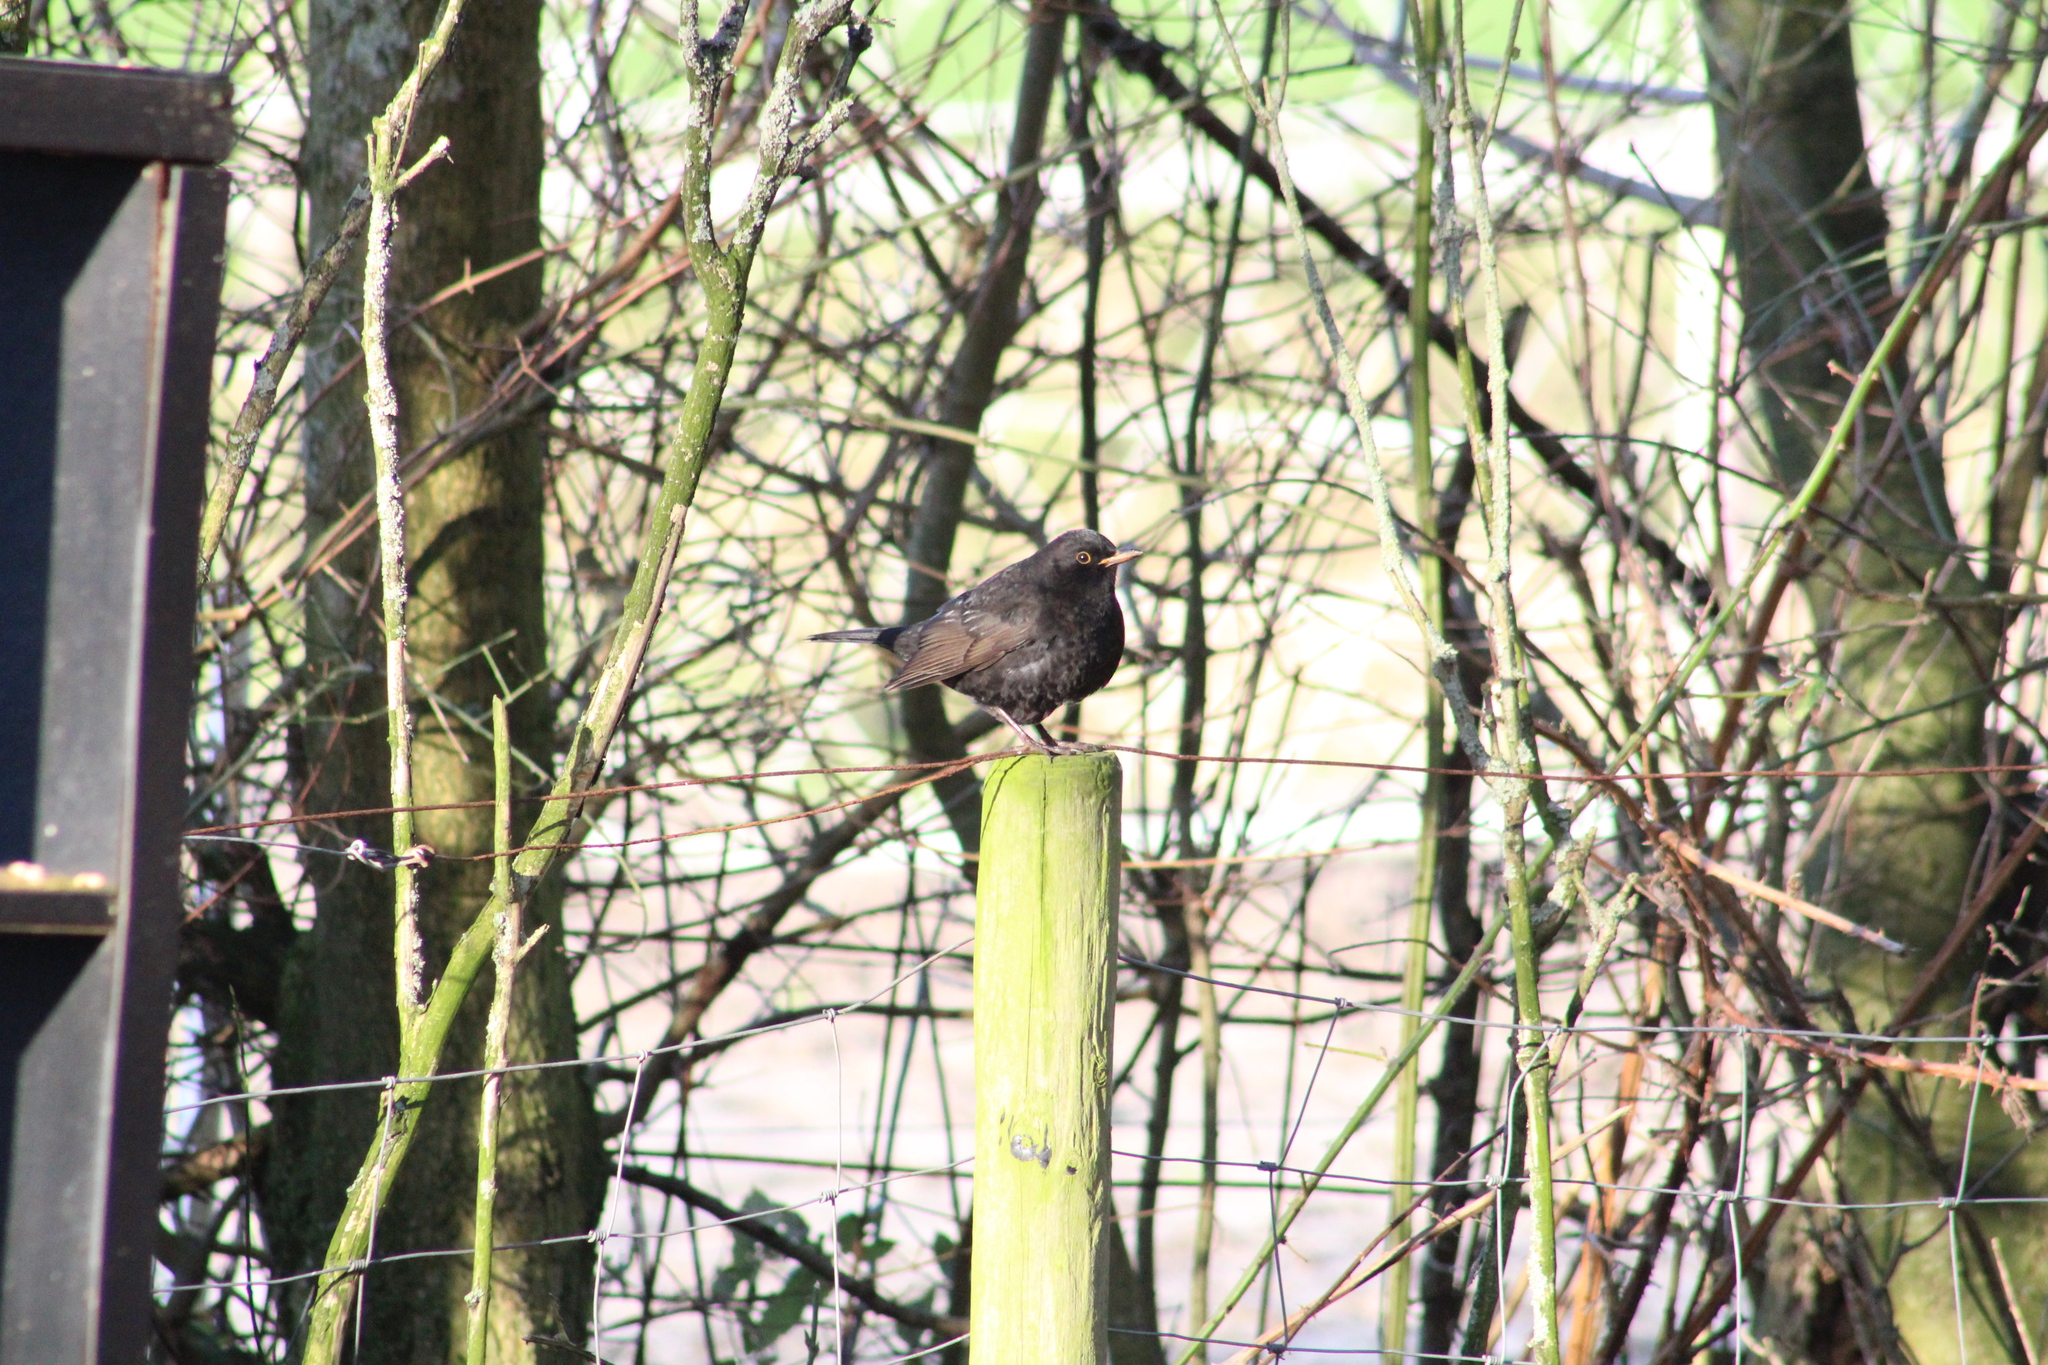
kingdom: Animalia
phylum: Chordata
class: Aves
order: Passeriformes
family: Turdidae
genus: Turdus
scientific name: Turdus merula
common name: Common blackbird
